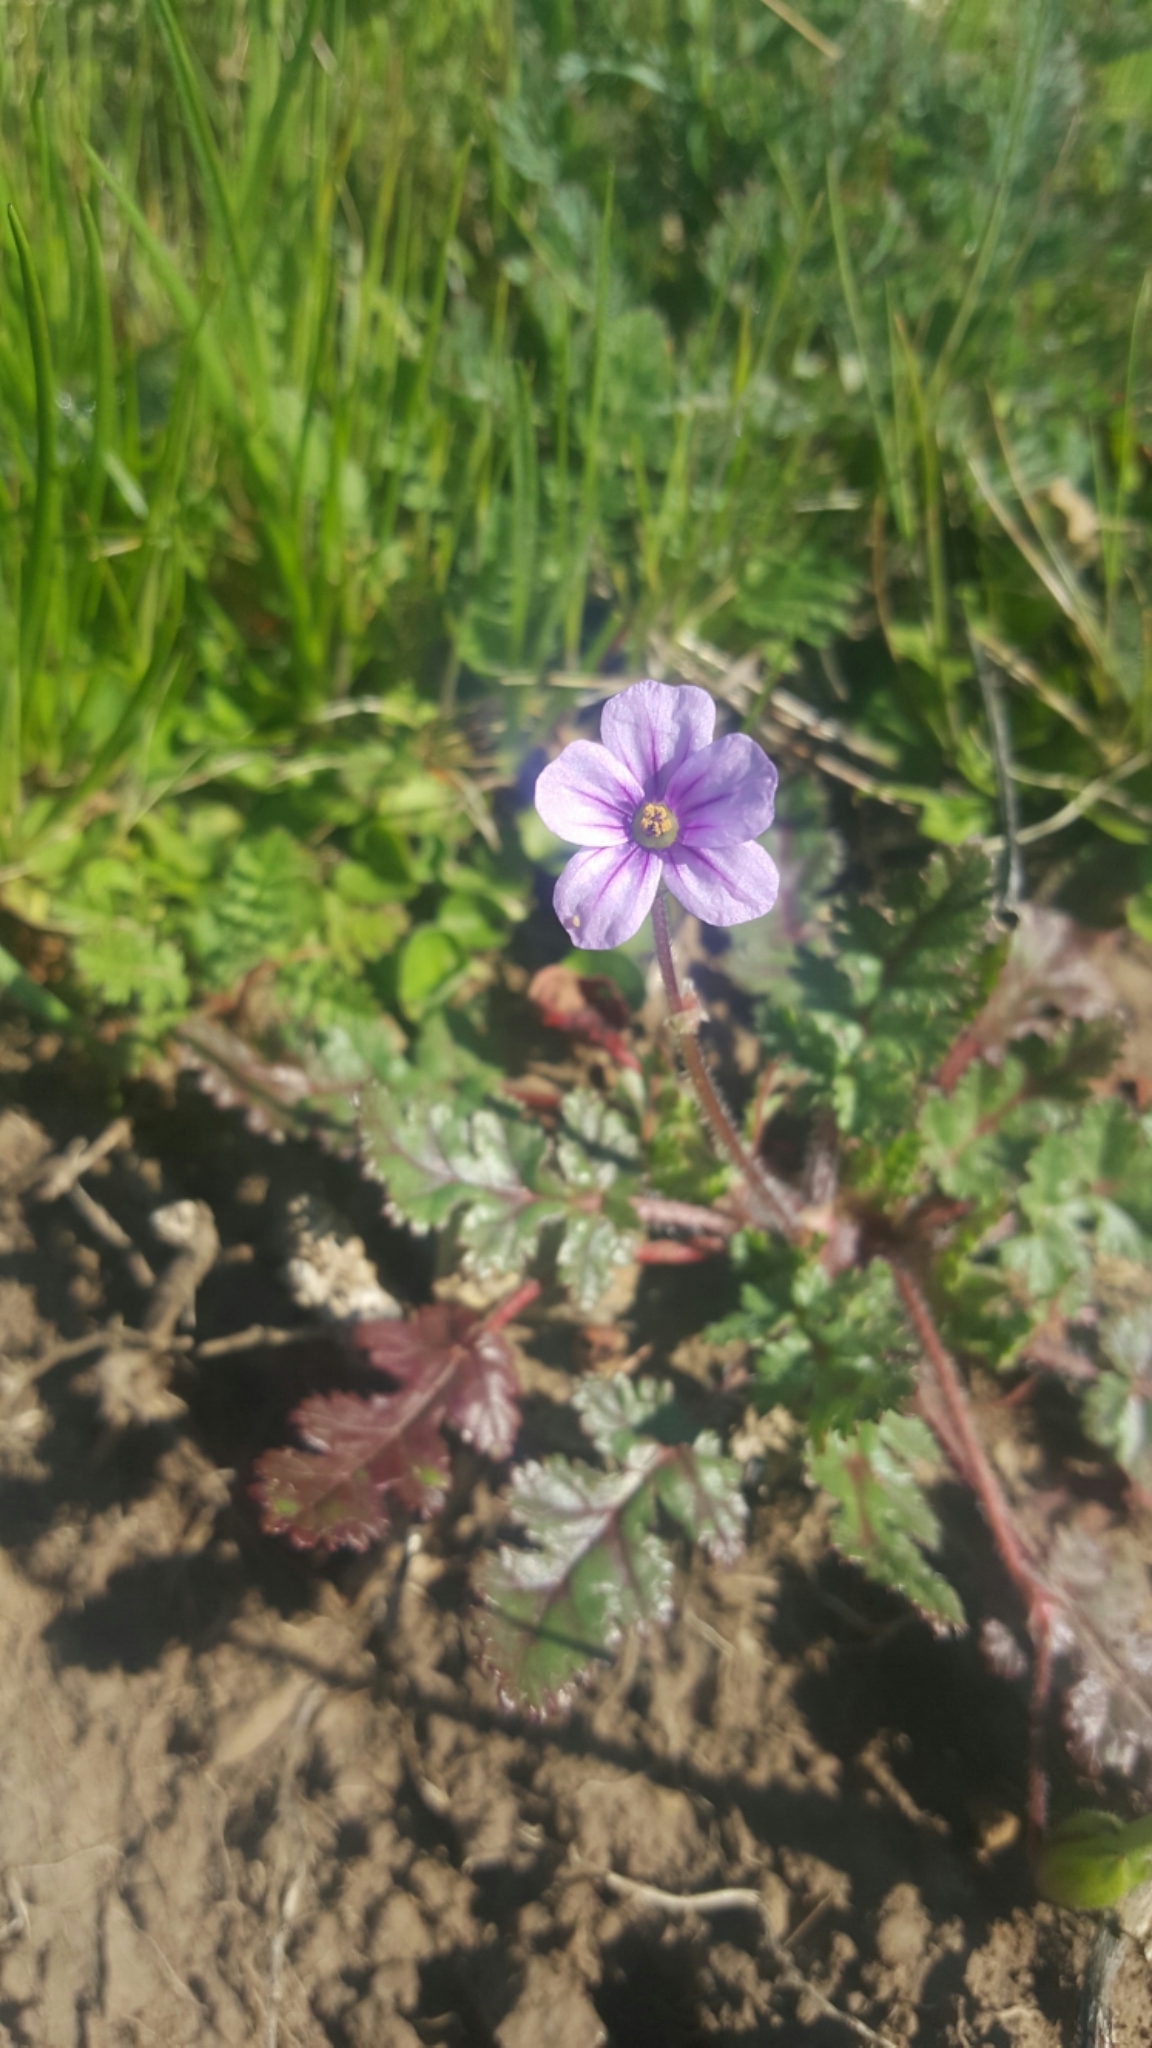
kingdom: Plantae
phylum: Tracheophyta
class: Magnoliopsida
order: Geraniales
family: Geraniaceae
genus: Erodium
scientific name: Erodium botrys
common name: Mediterranean stork's-bill
